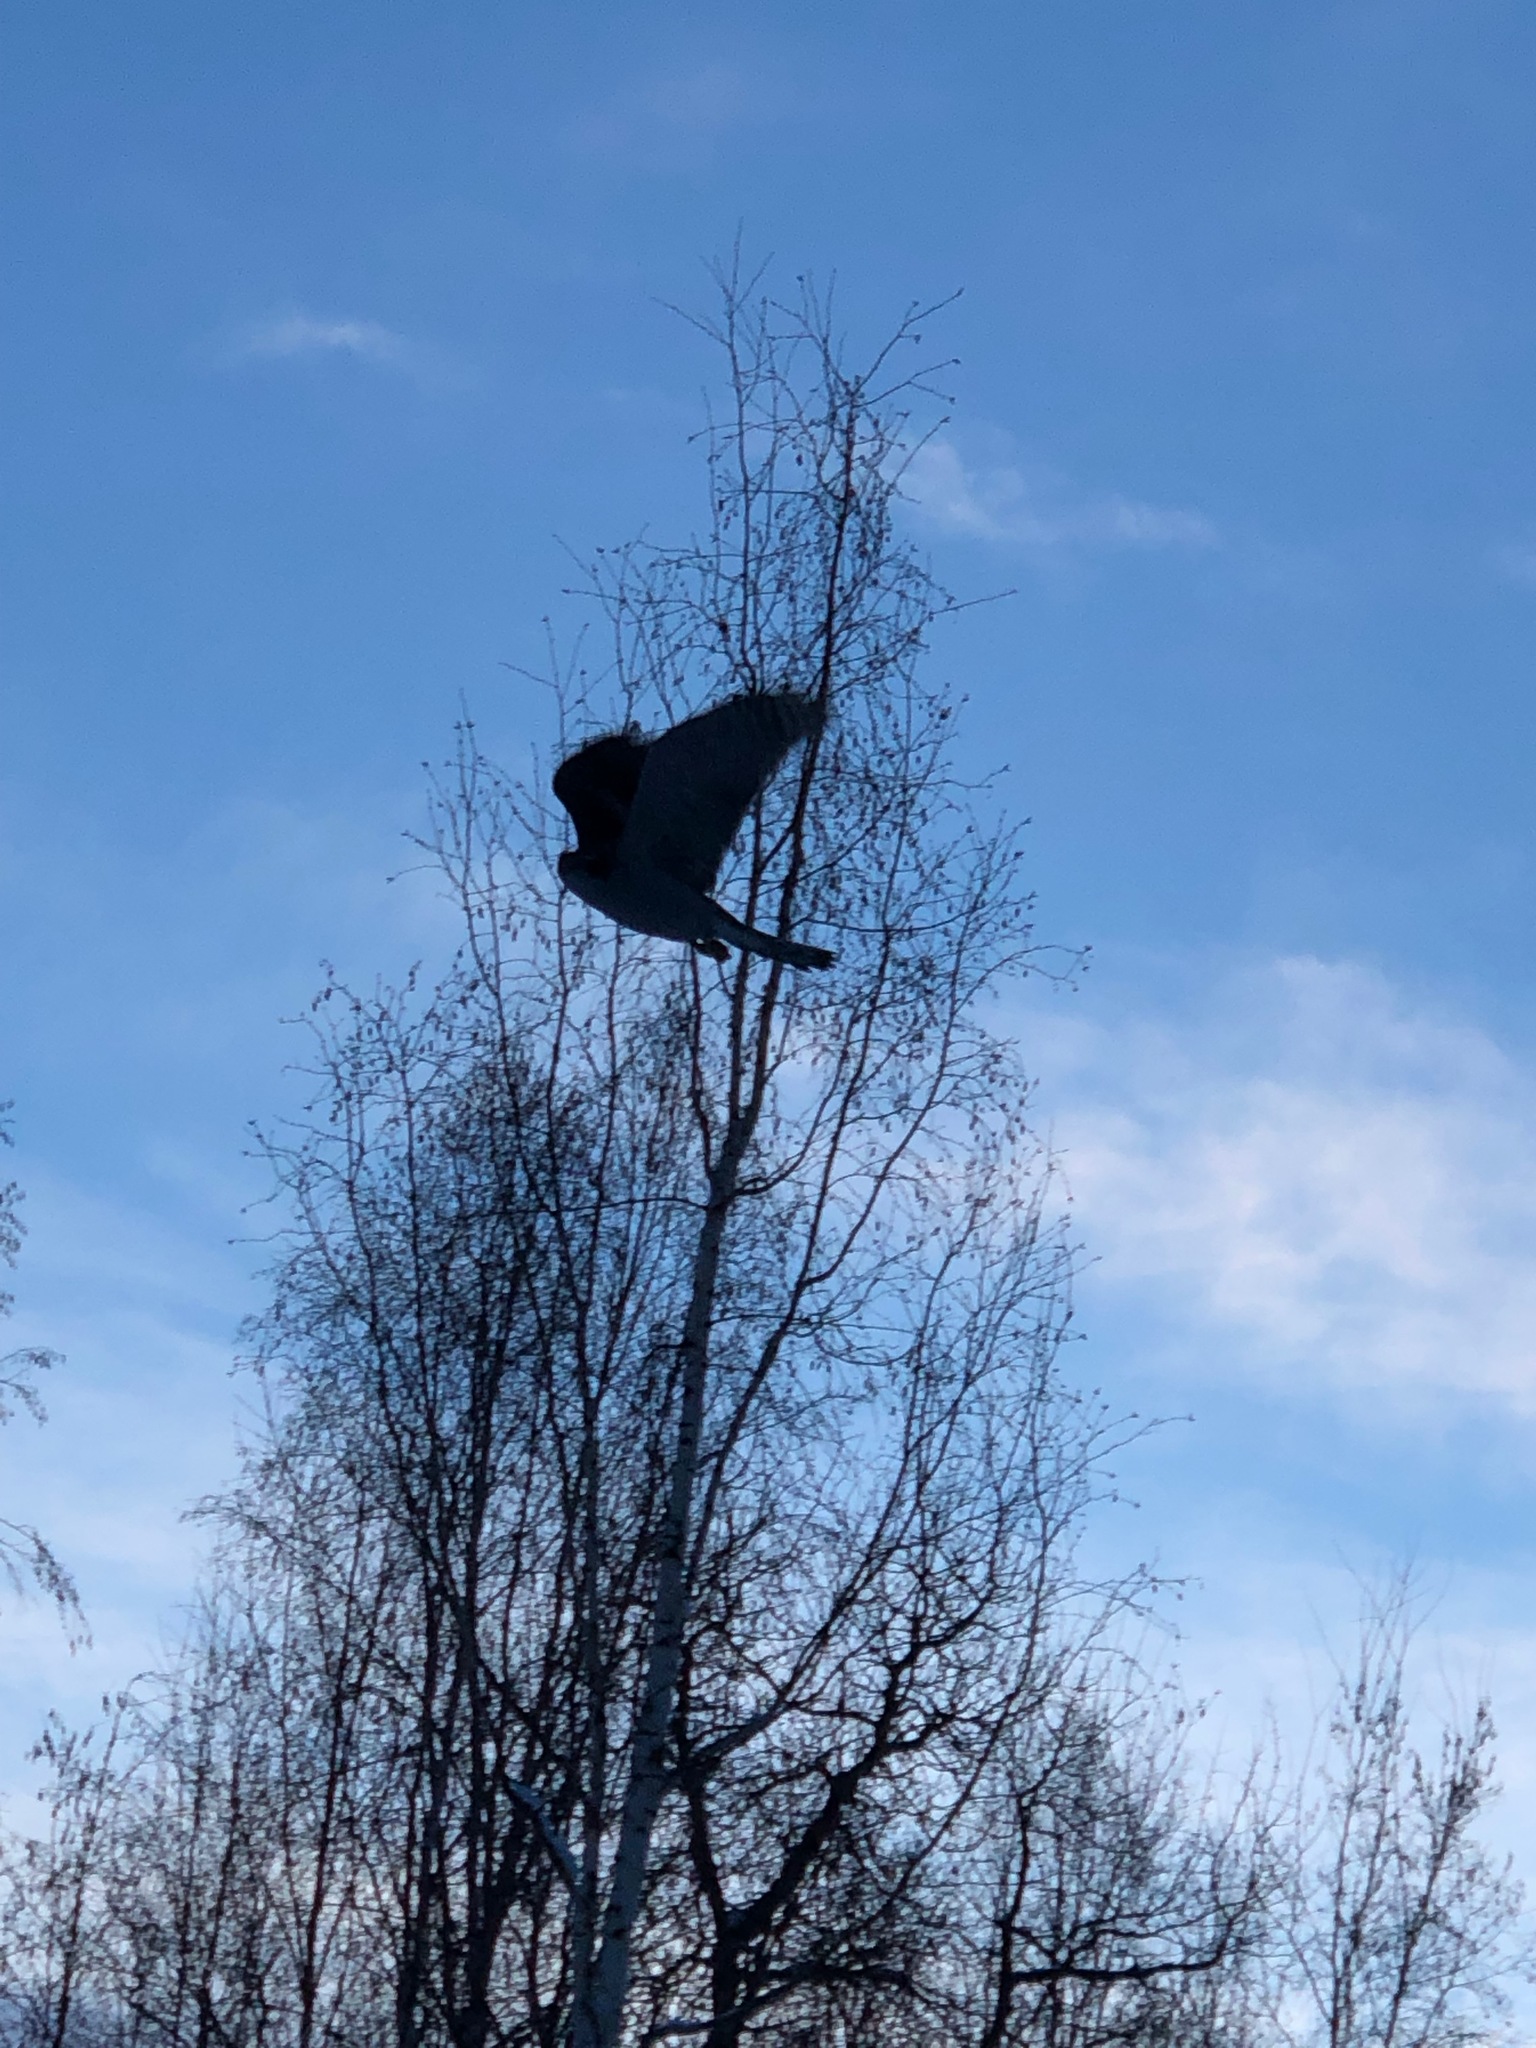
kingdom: Animalia
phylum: Chordata
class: Aves
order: Accipitriformes
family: Accipitridae
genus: Accipiter
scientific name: Accipiter gentilis
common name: Northern goshawk
